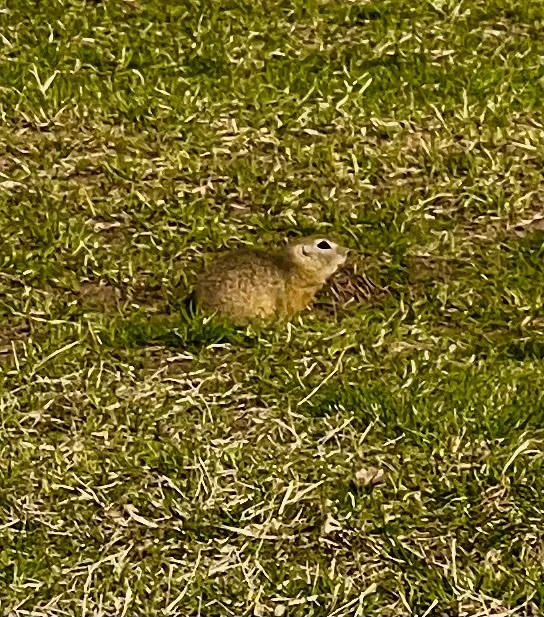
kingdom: Animalia
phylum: Chordata
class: Mammalia
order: Rodentia
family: Sciuridae
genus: Spermophilus
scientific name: Spermophilus citellus
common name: European ground squirrel
